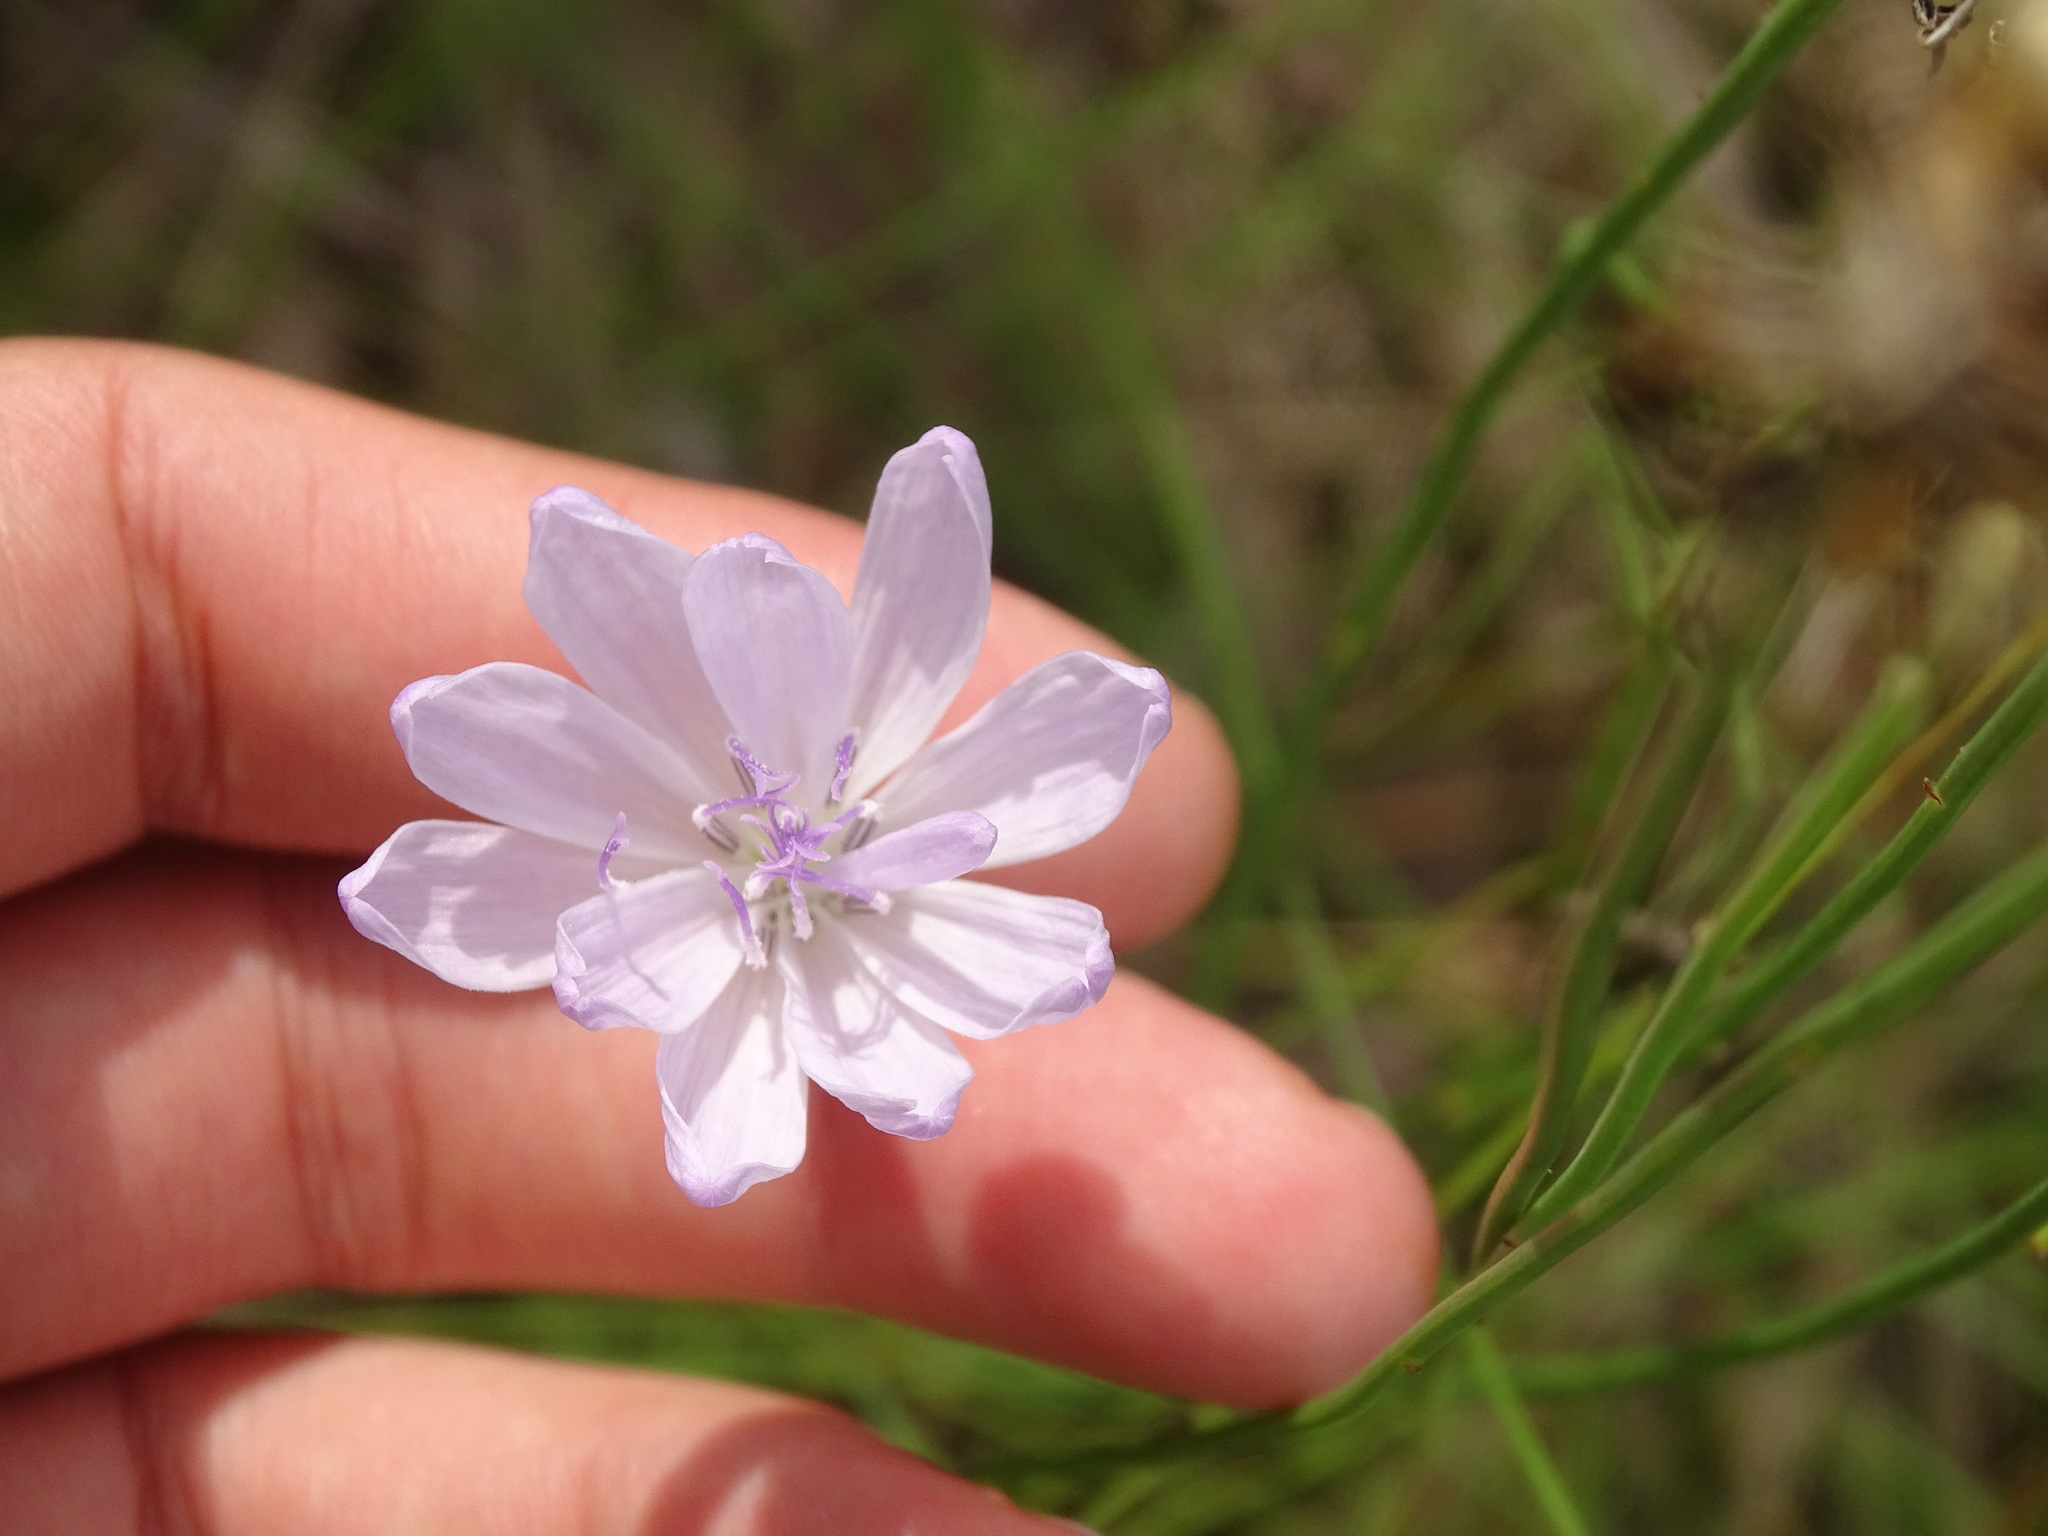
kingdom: Plantae
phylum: Tracheophyta
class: Magnoliopsida
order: Asterales
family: Asteraceae
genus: Lygodesmia
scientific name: Lygodesmia aphylla
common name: Rose-rush
